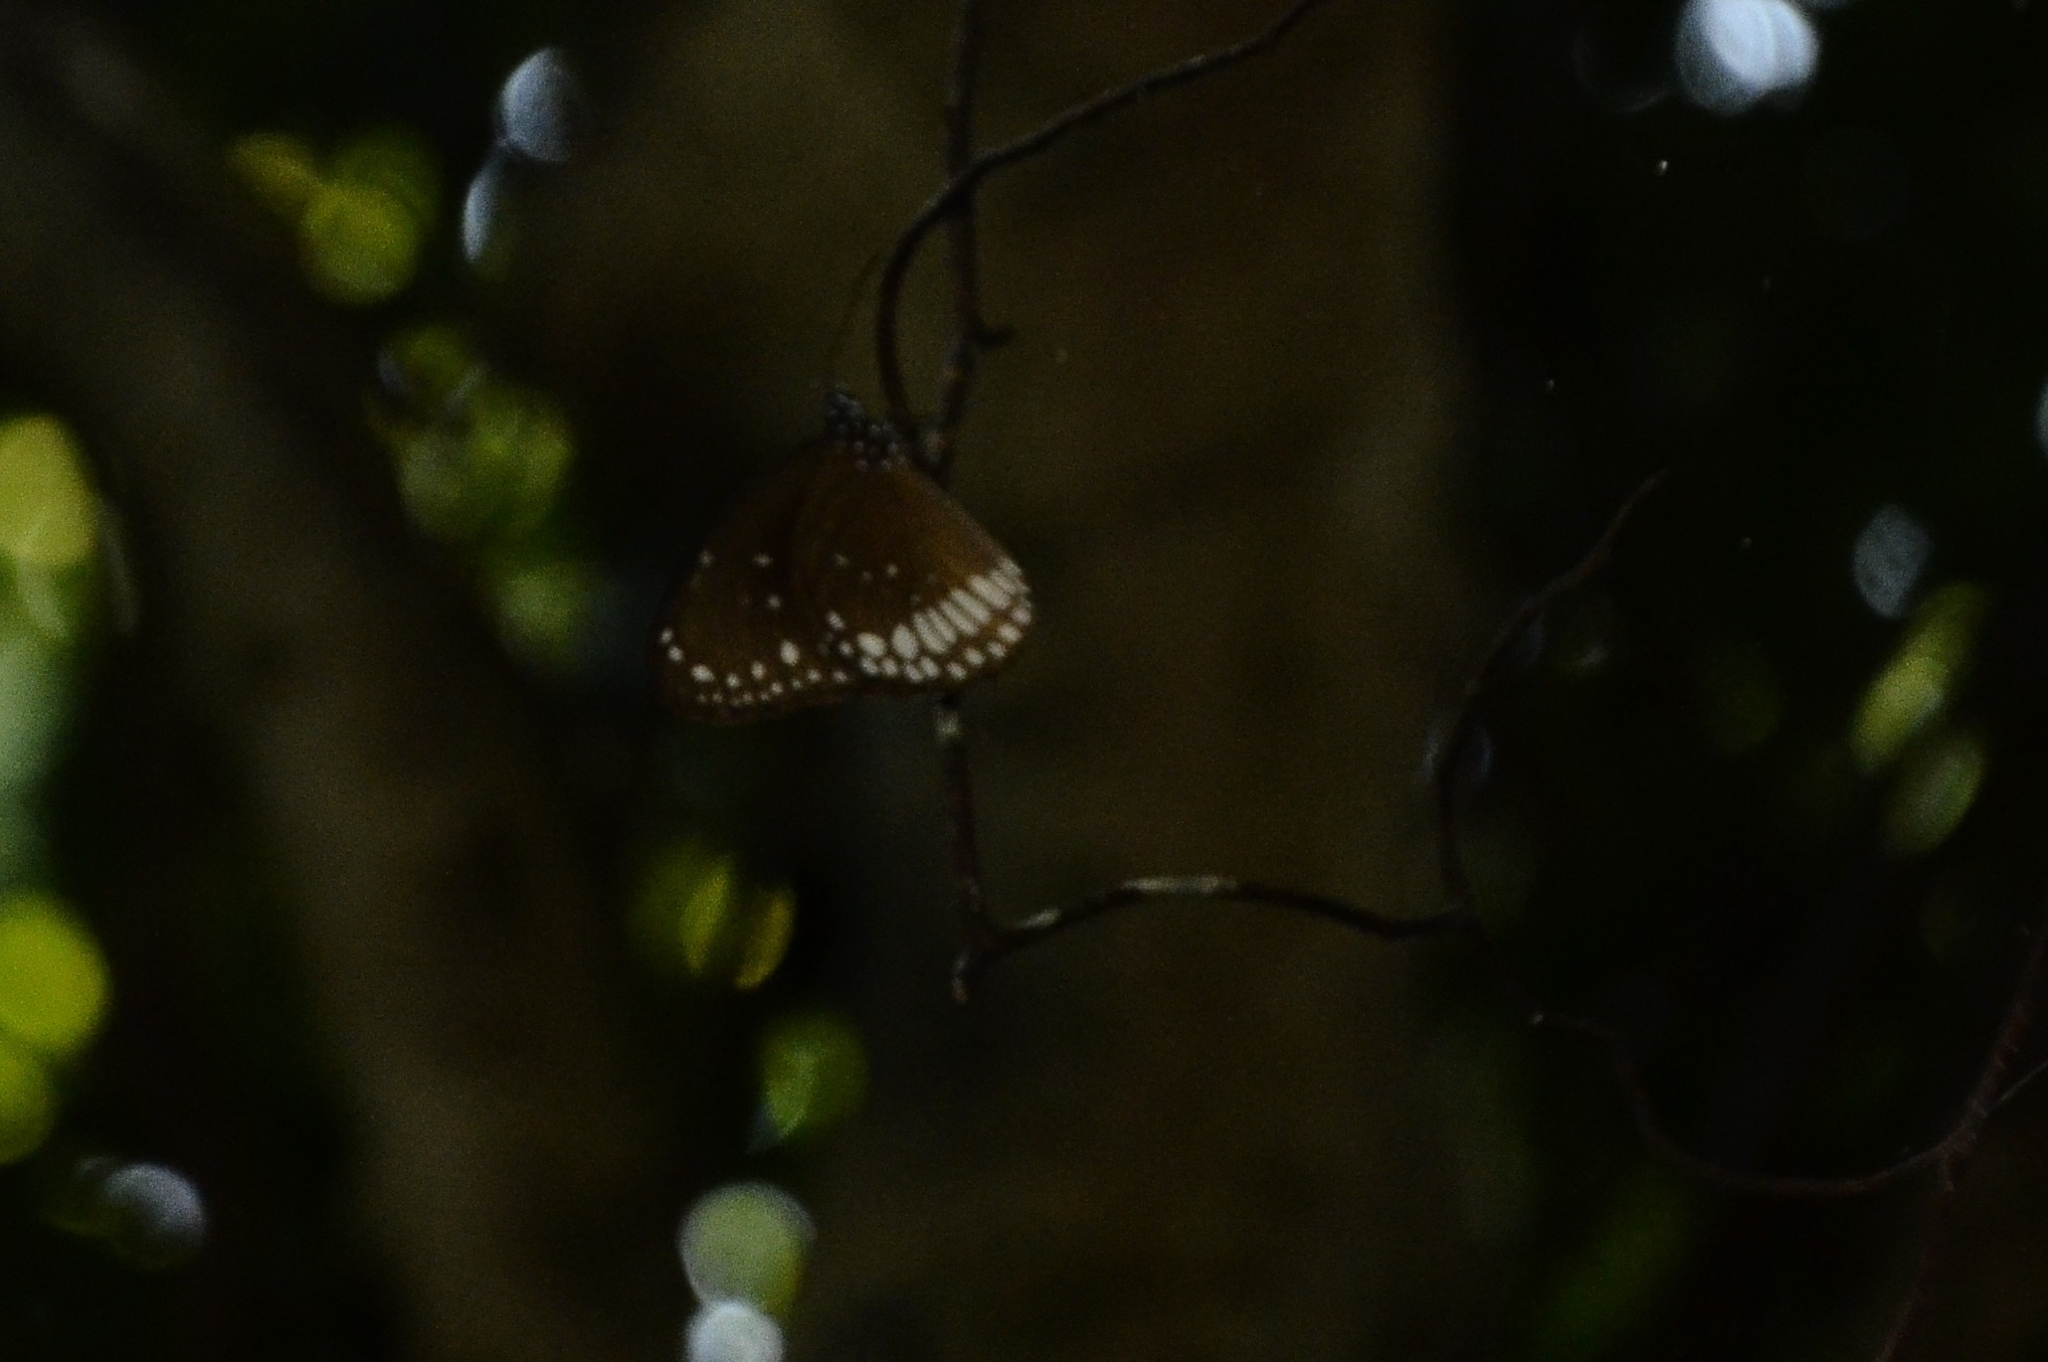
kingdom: Animalia
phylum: Arthropoda
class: Insecta
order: Lepidoptera
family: Nymphalidae
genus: Euploea
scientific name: Euploea core
